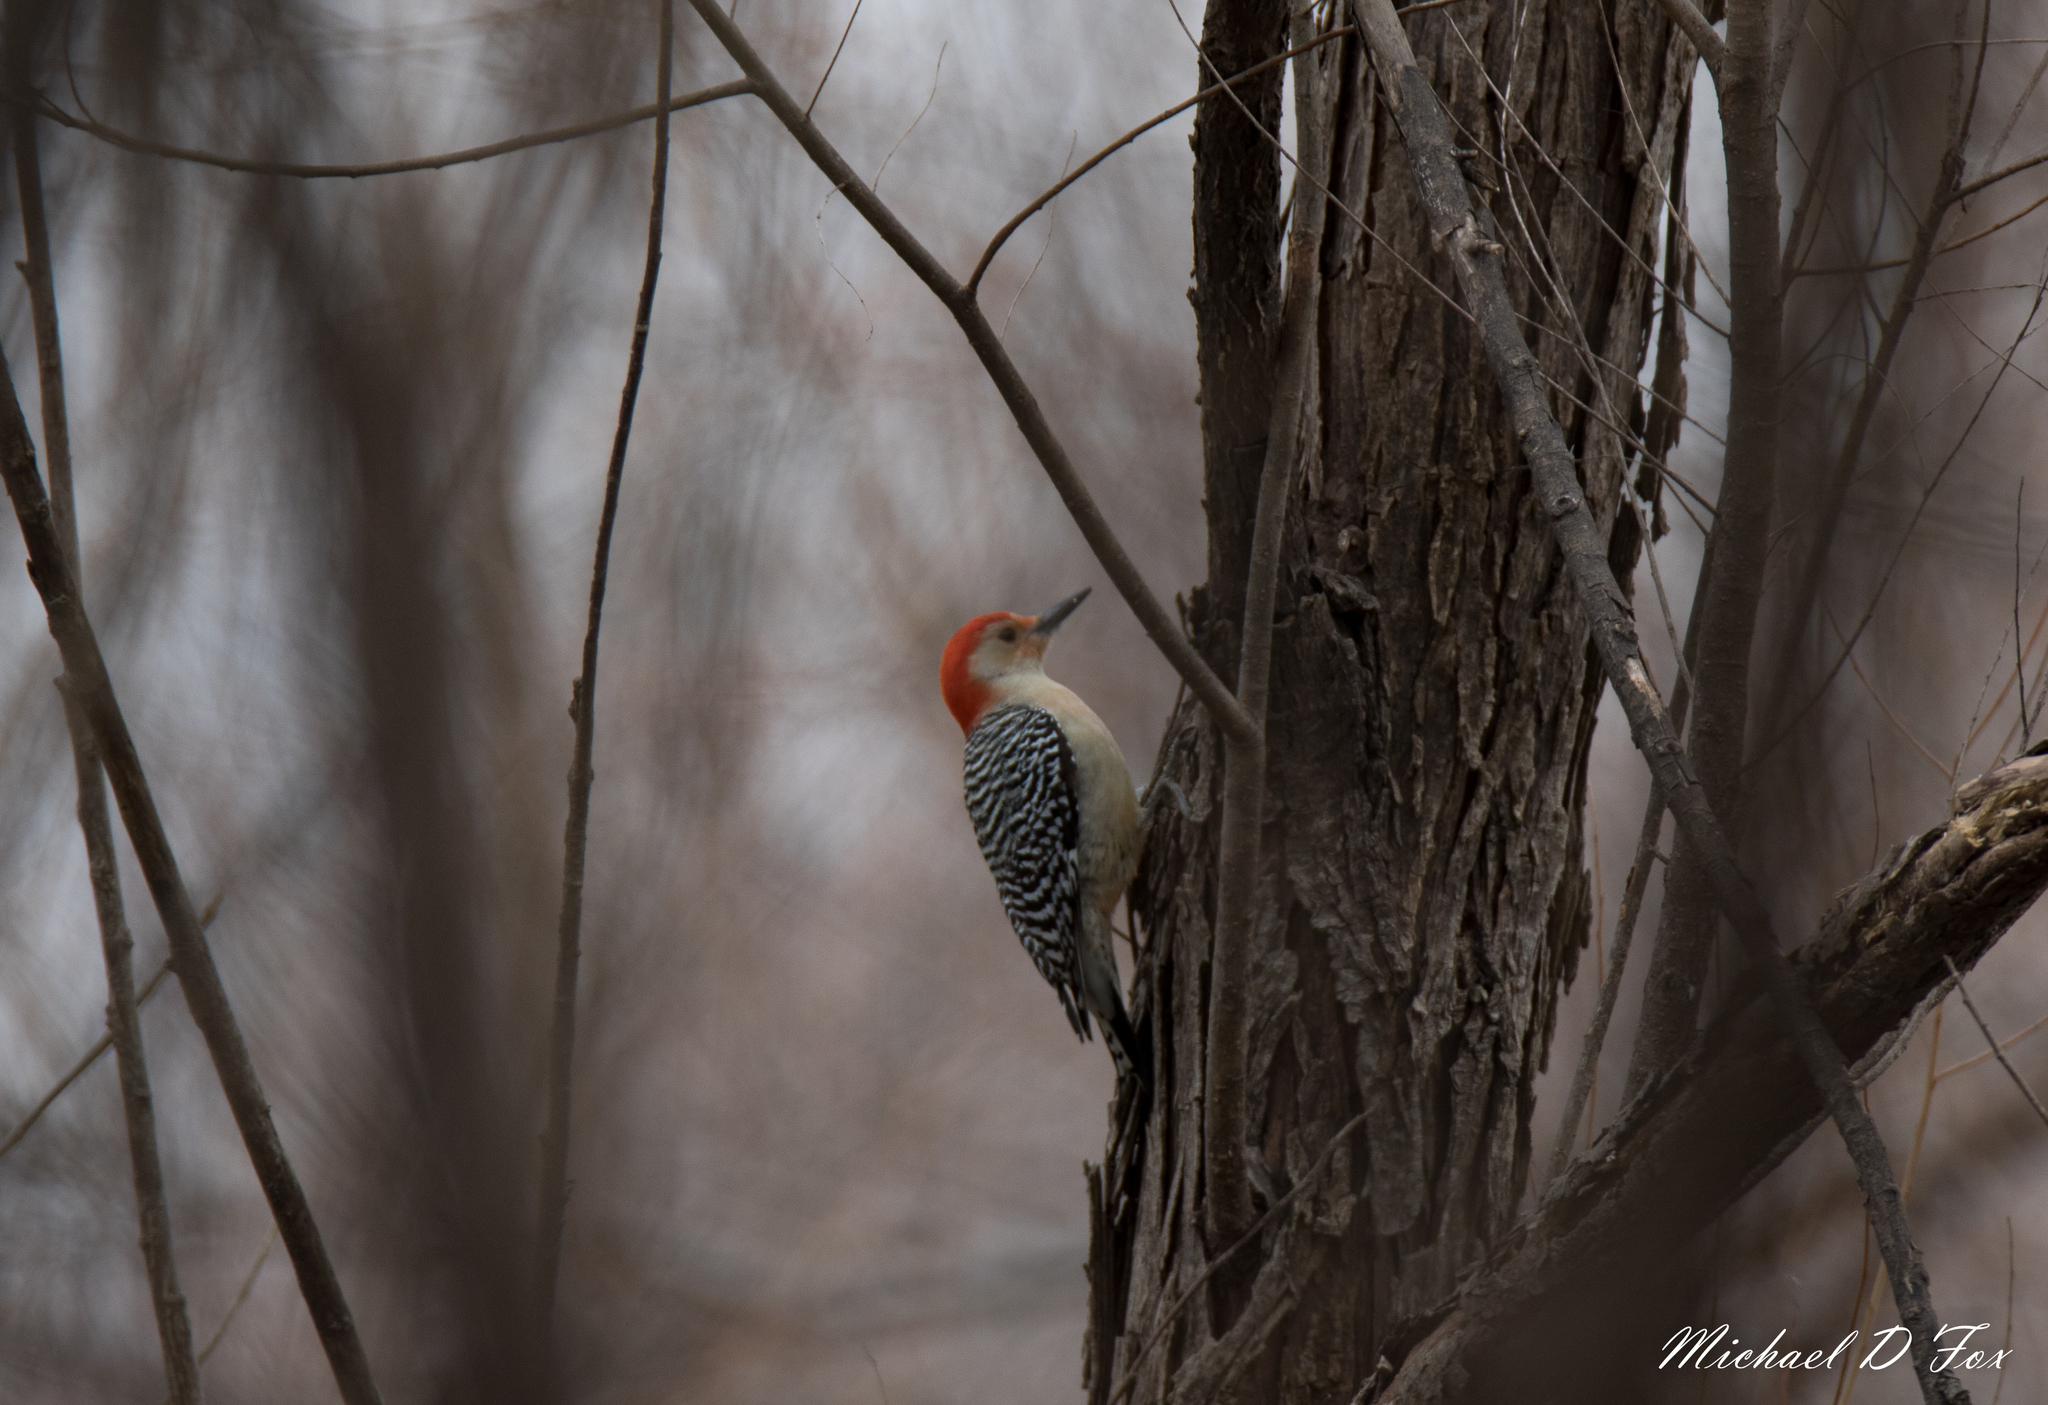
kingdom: Animalia
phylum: Chordata
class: Aves
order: Piciformes
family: Picidae
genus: Melanerpes
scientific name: Melanerpes carolinus
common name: Red-bellied woodpecker
